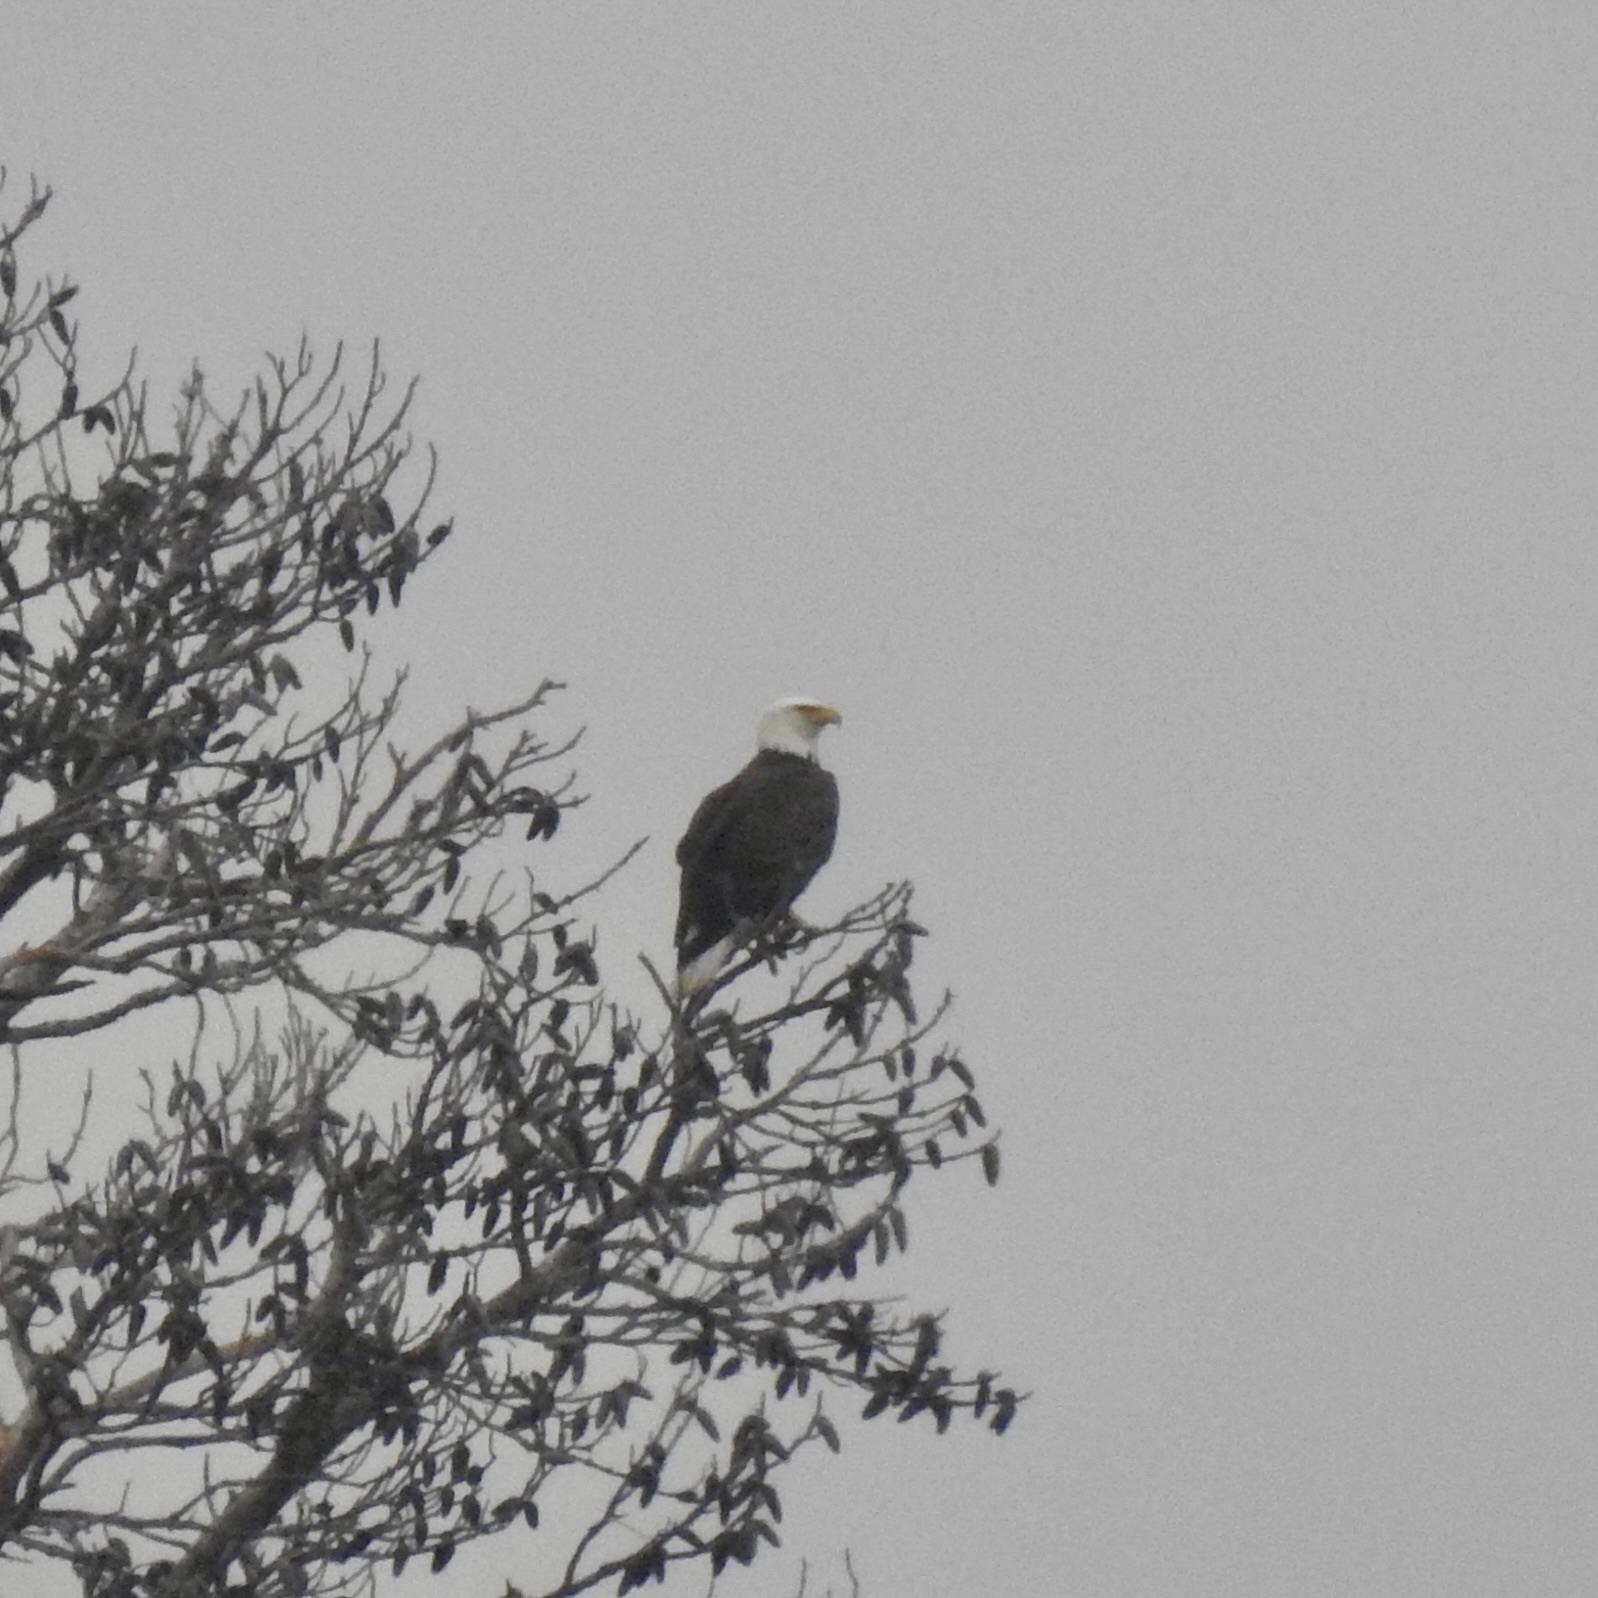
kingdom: Animalia
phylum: Chordata
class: Aves
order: Accipitriformes
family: Accipitridae
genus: Haliaeetus
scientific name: Haliaeetus leucocephalus
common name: Bald eagle
